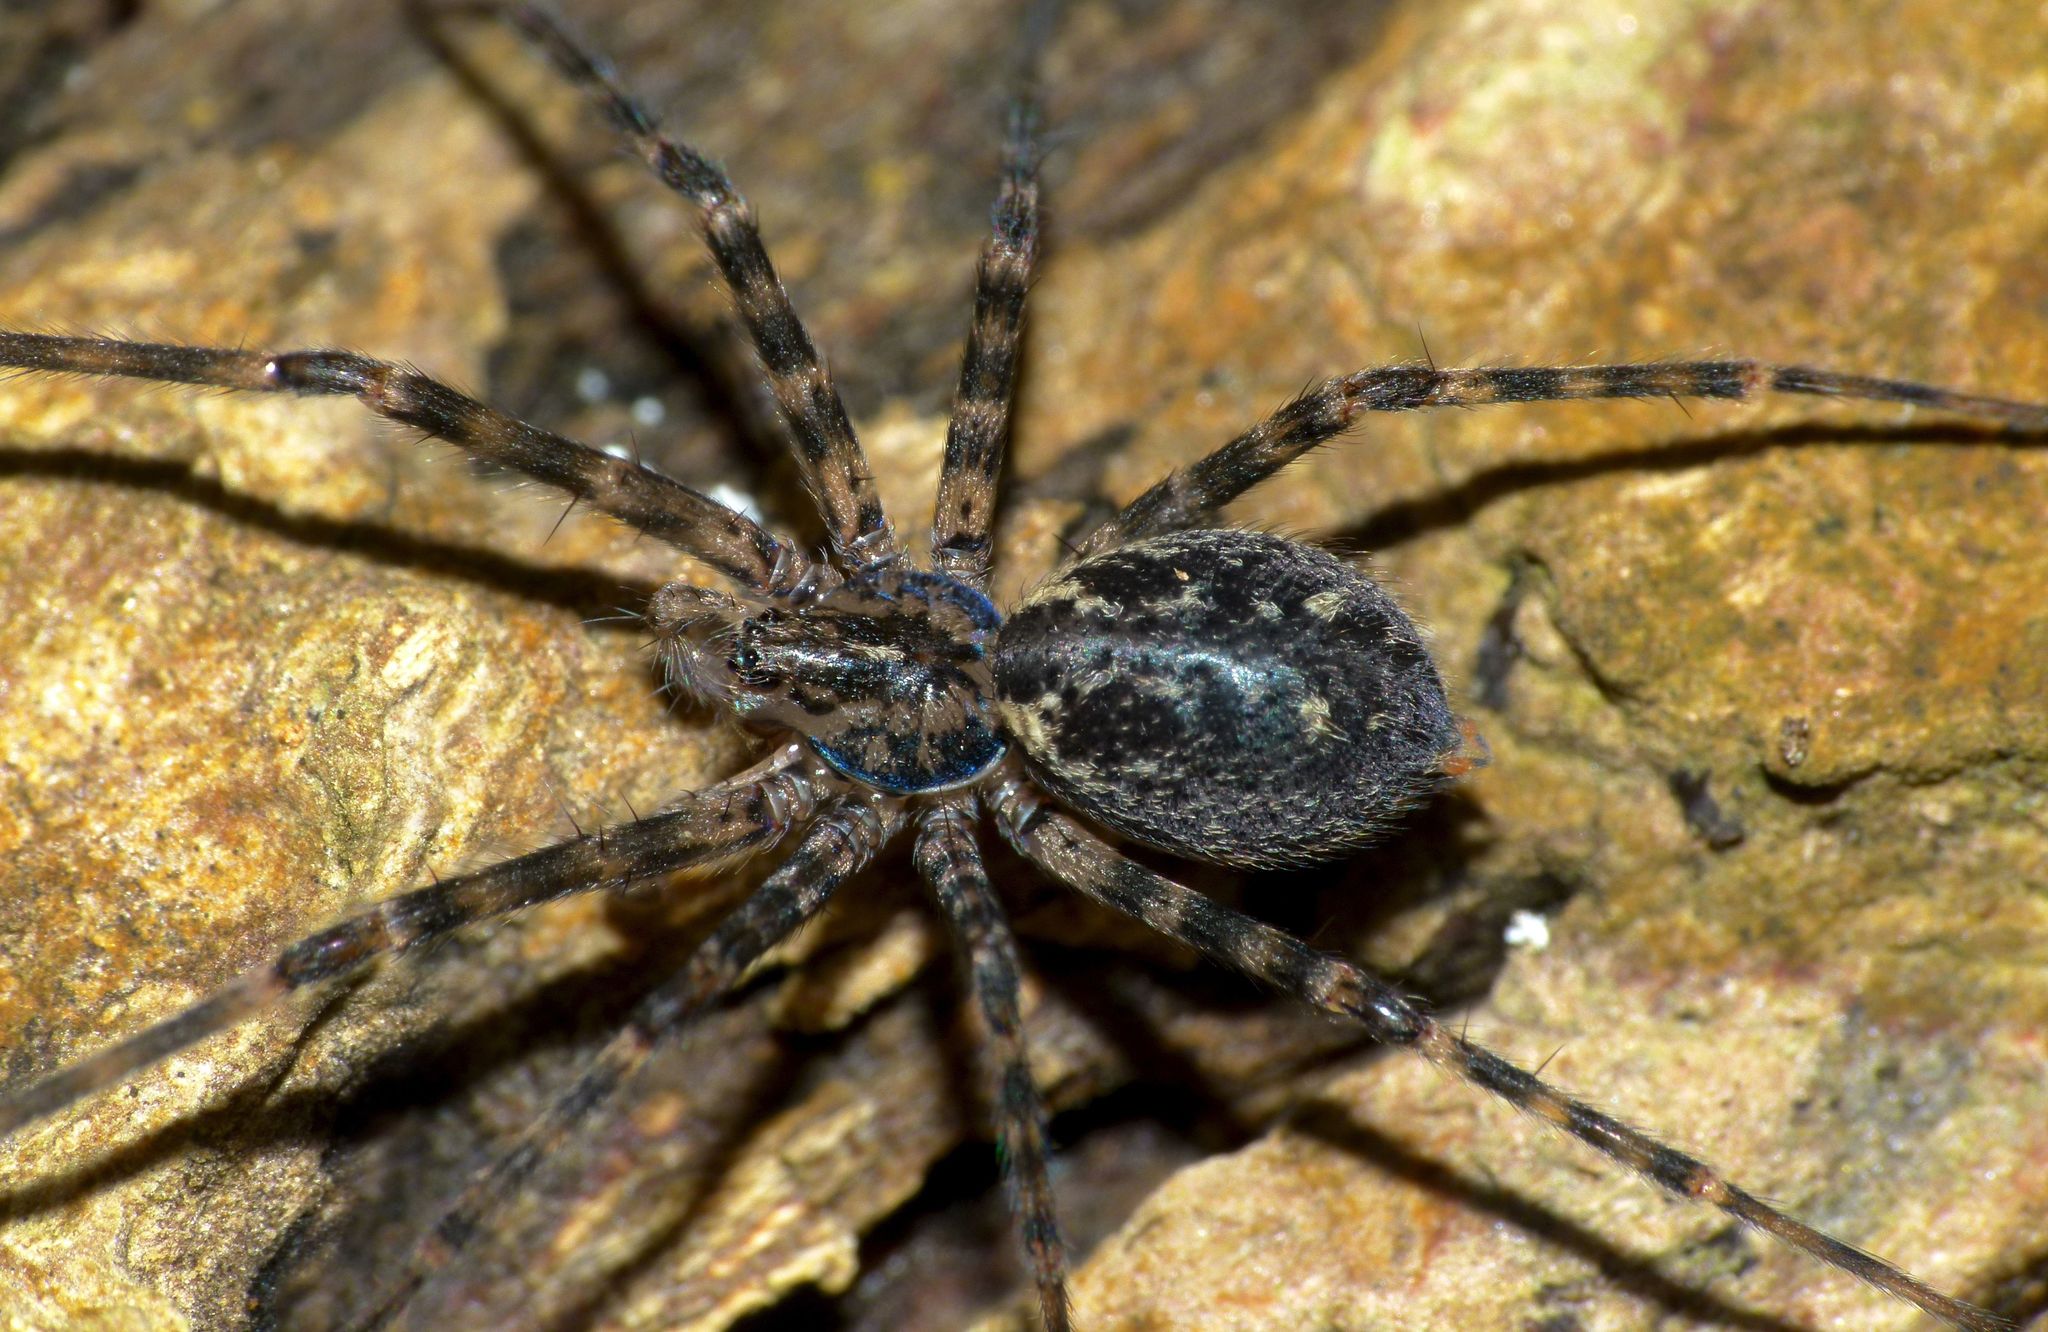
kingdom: Animalia
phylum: Arthropoda
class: Arachnida
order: Araneae
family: Stiphidiidae
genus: Stiphidion
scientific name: Stiphidion facetum
